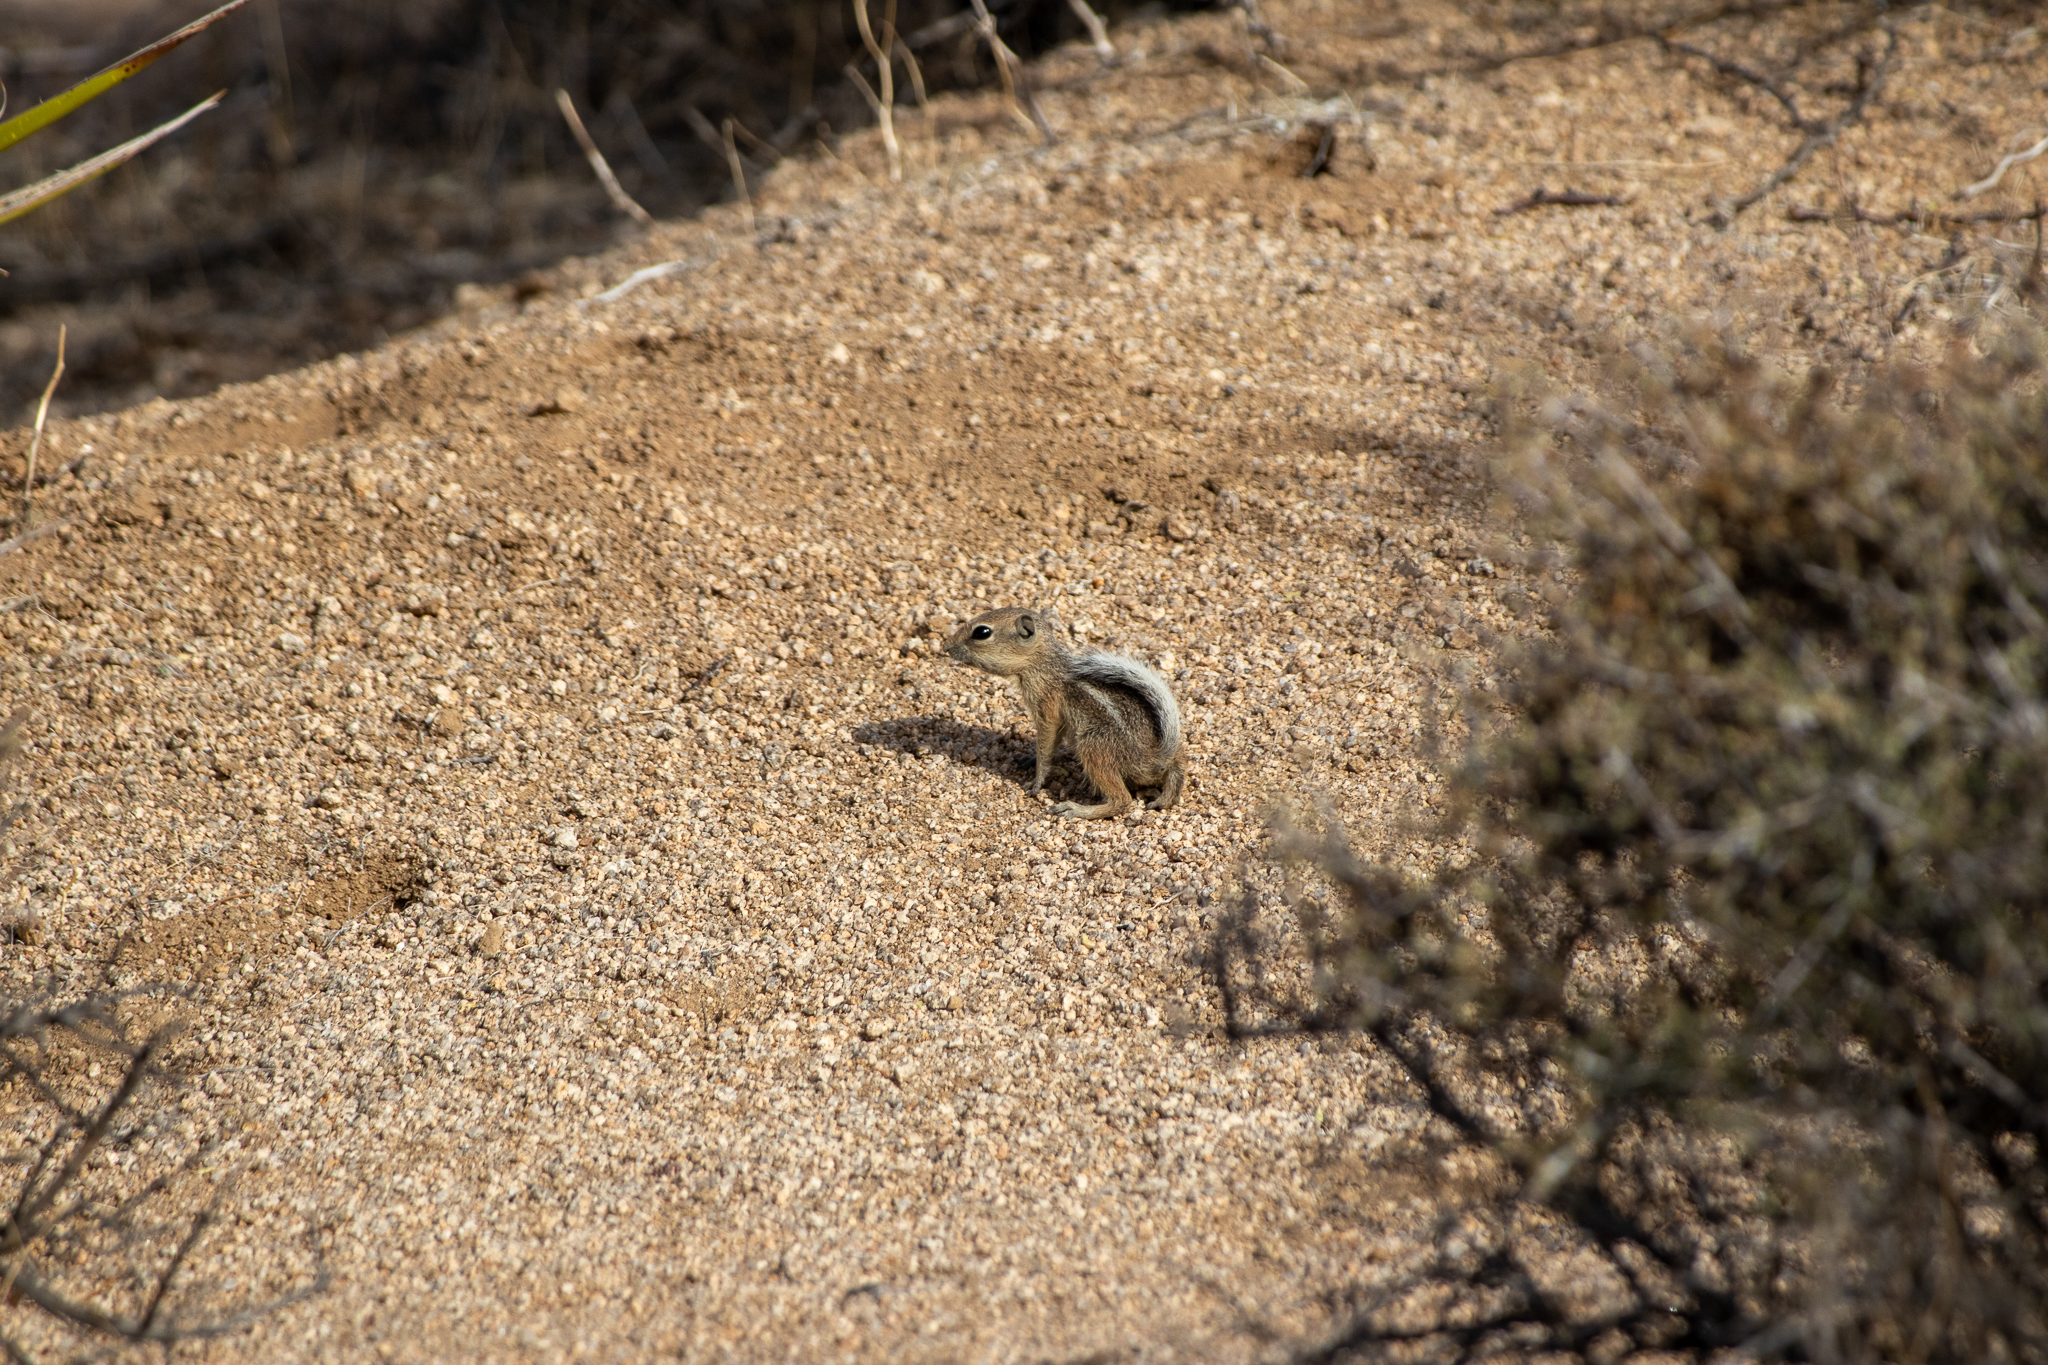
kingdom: Animalia
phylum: Chordata
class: Mammalia
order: Rodentia
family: Sciuridae
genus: Ammospermophilus
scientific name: Ammospermophilus leucurus
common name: White-tailed antelope squirrel
